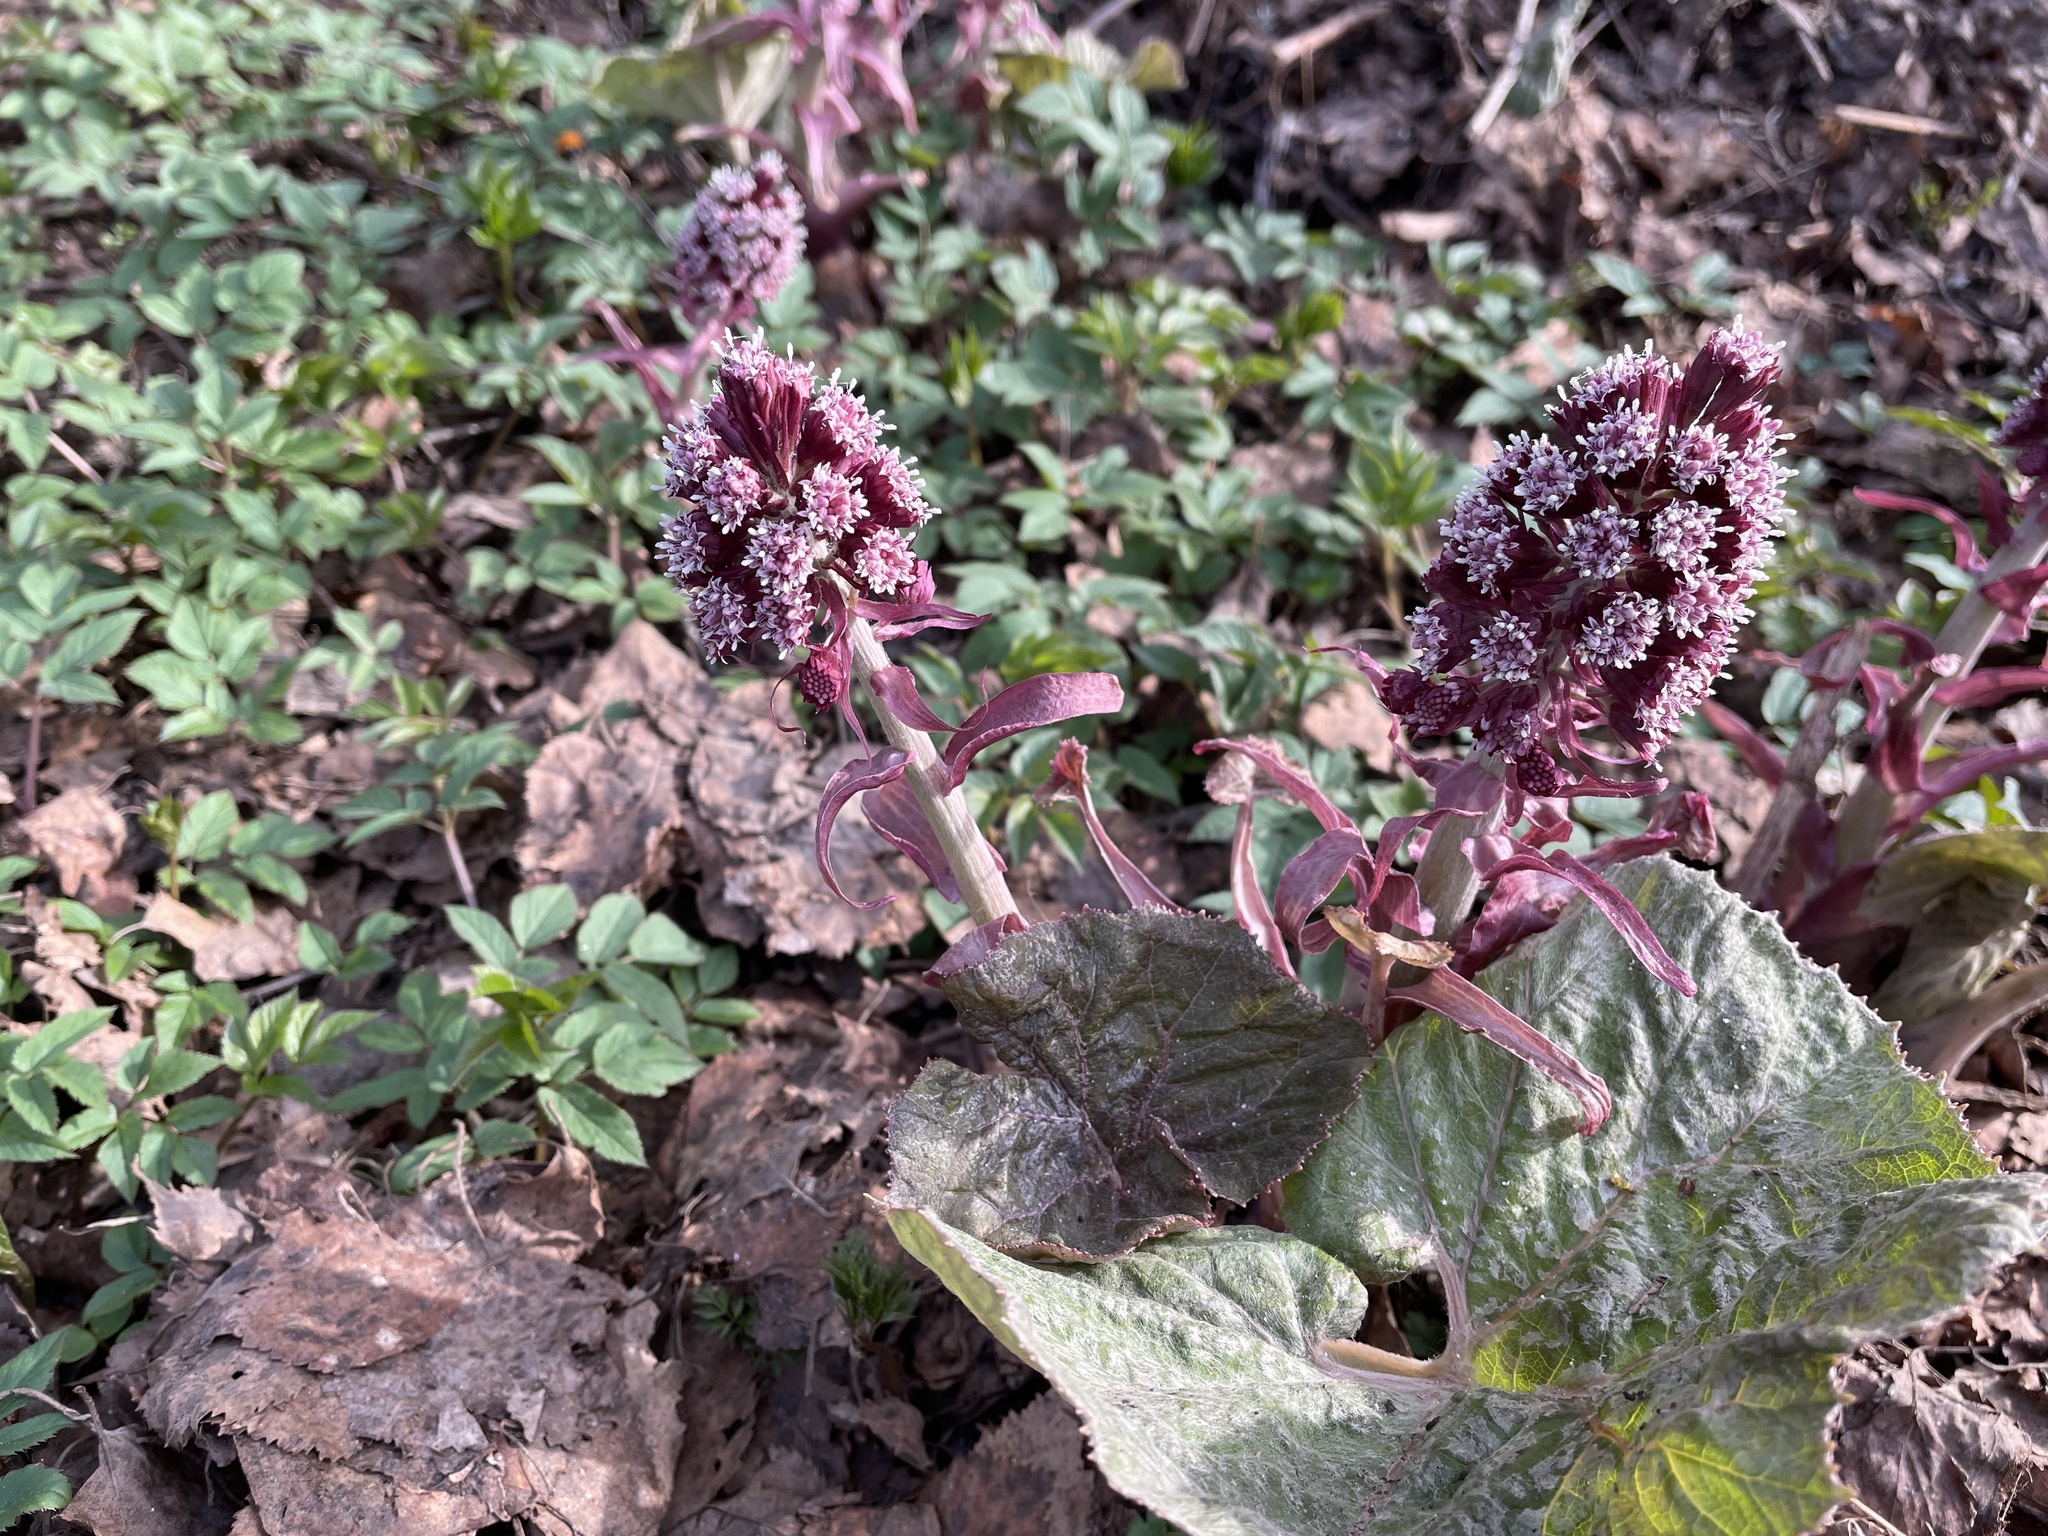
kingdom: Plantae
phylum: Tracheophyta
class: Magnoliopsida
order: Asterales
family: Asteraceae
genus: Petasites
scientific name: Petasites hybridus
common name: Butterbur
